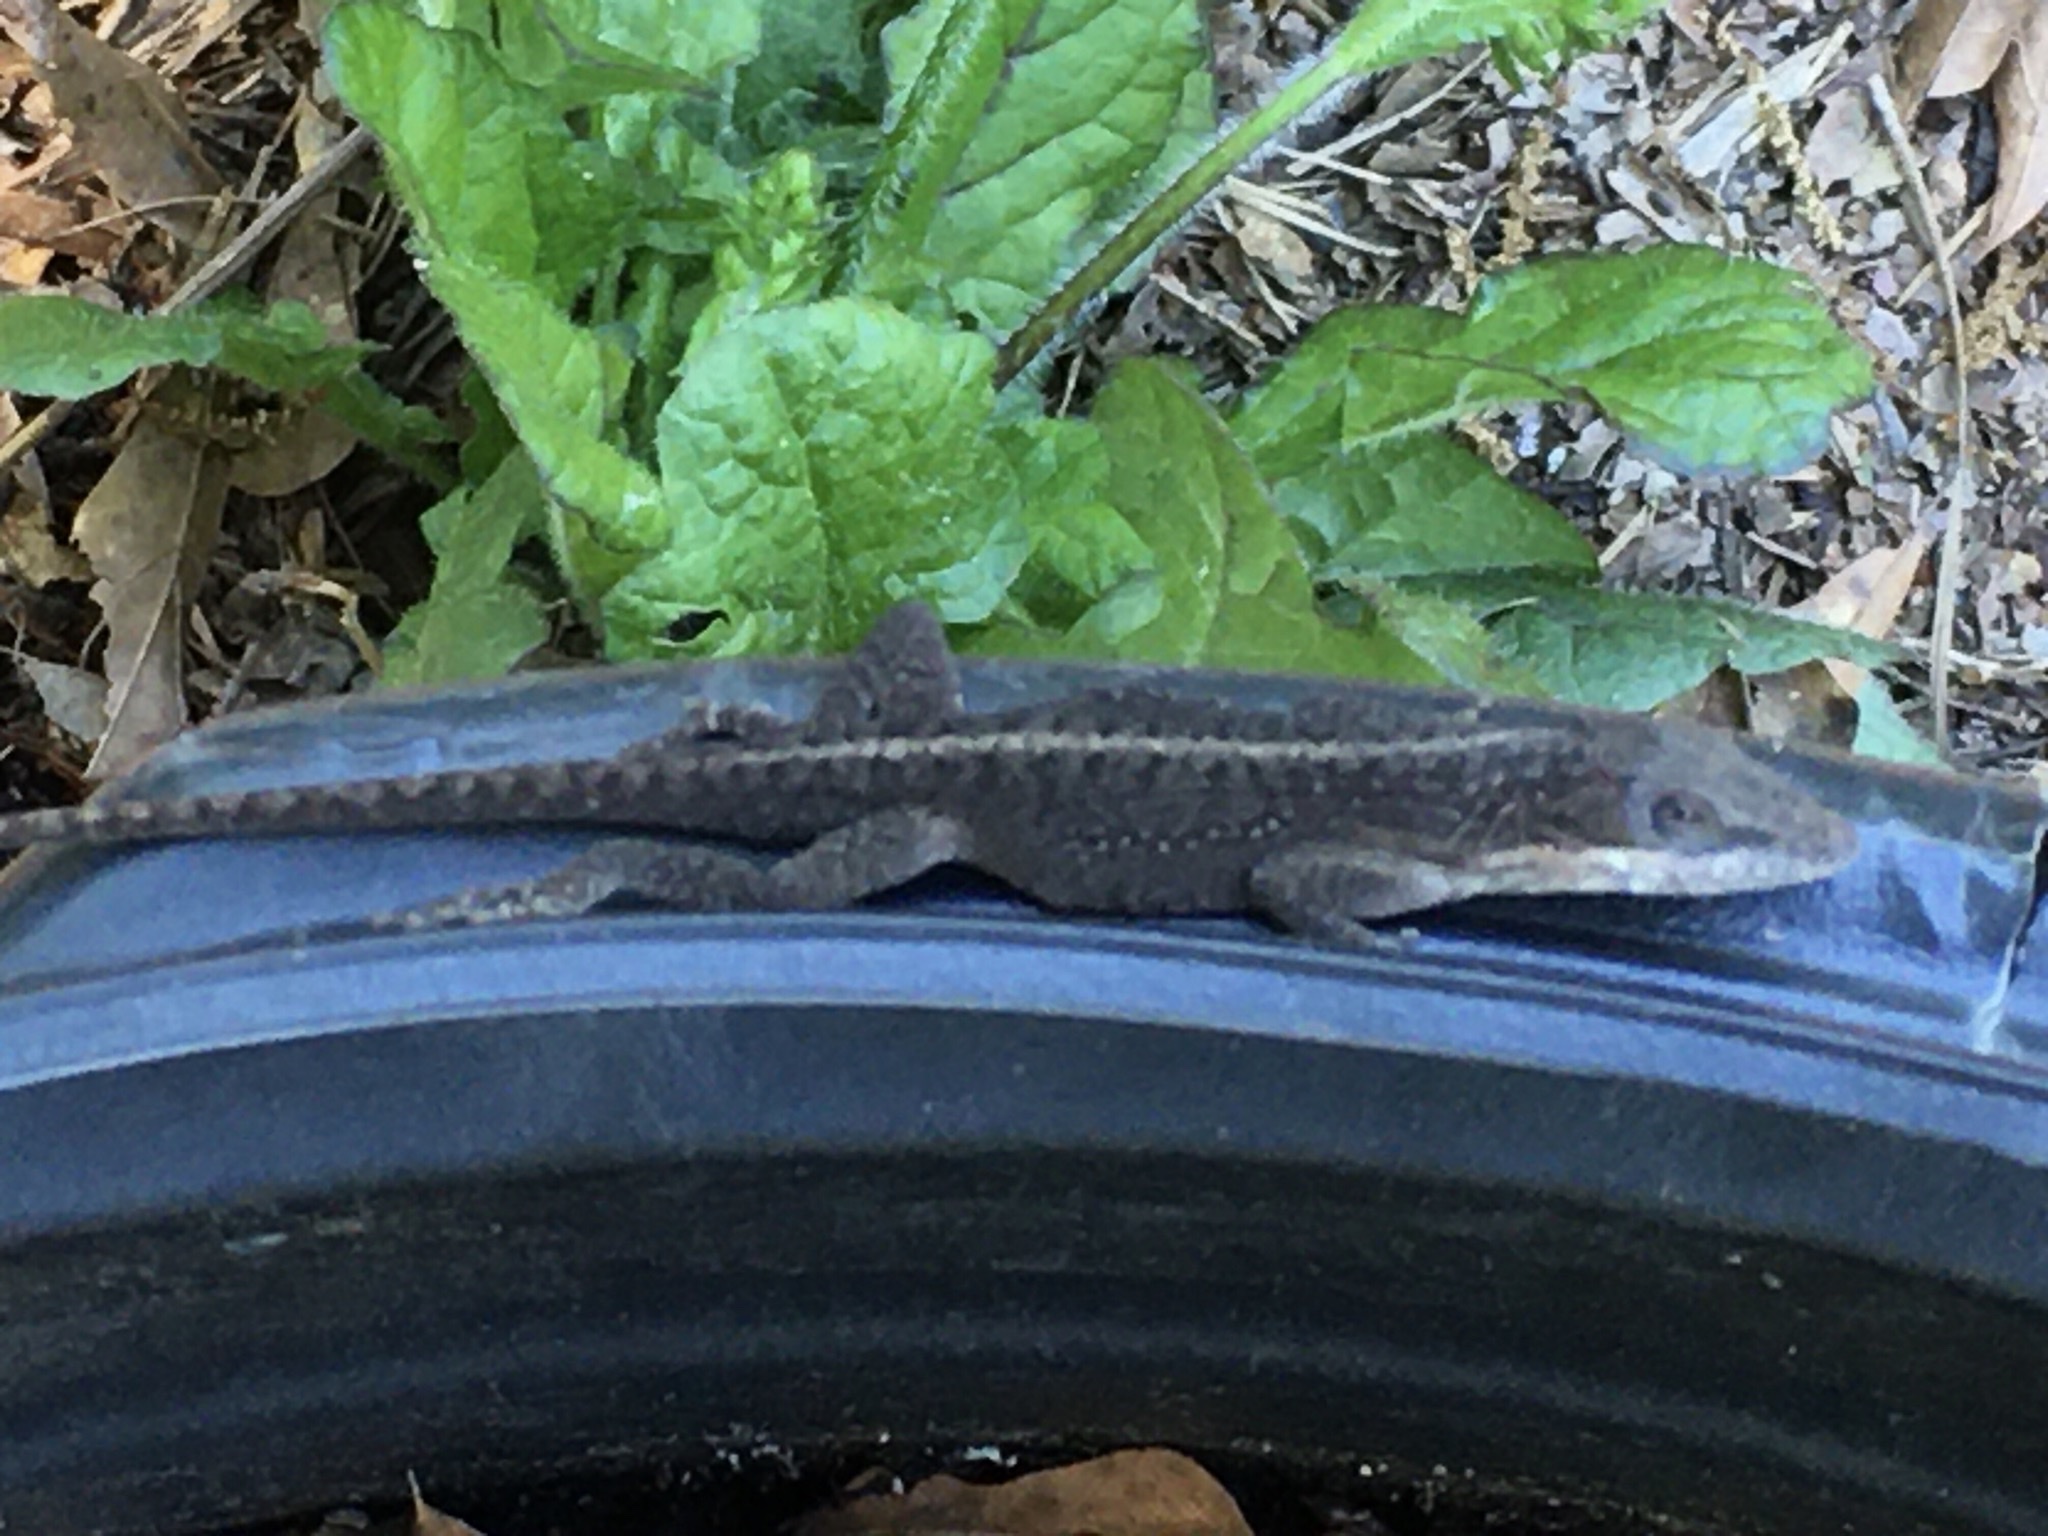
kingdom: Animalia
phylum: Chordata
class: Squamata
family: Dactyloidae
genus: Anolis
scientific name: Anolis carolinensis
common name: Green anole
